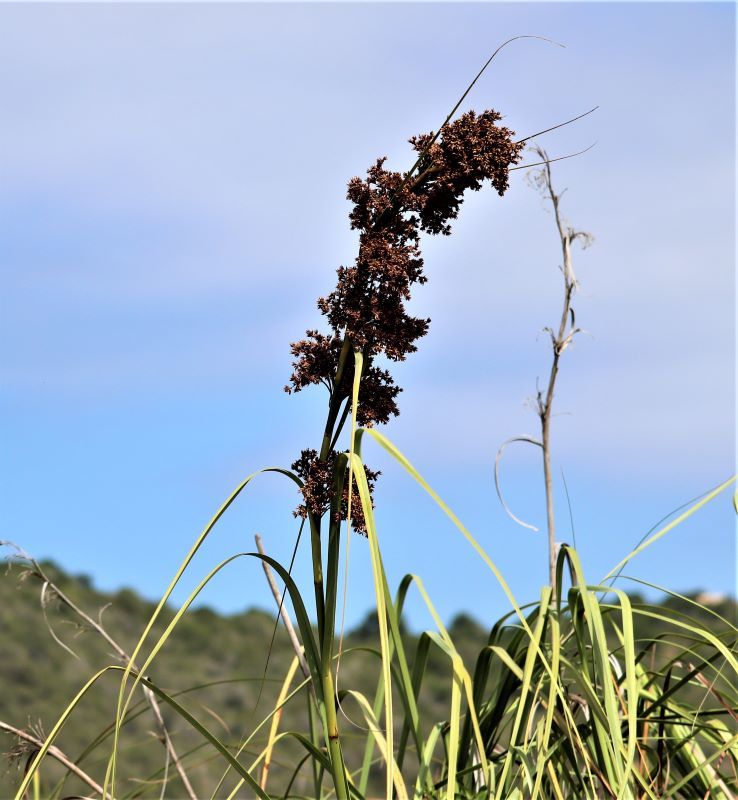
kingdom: Plantae
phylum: Tracheophyta
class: Liliopsida
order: Poales
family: Cyperaceae
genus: Cladium
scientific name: Cladium mariscus
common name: Great fen-sedge
